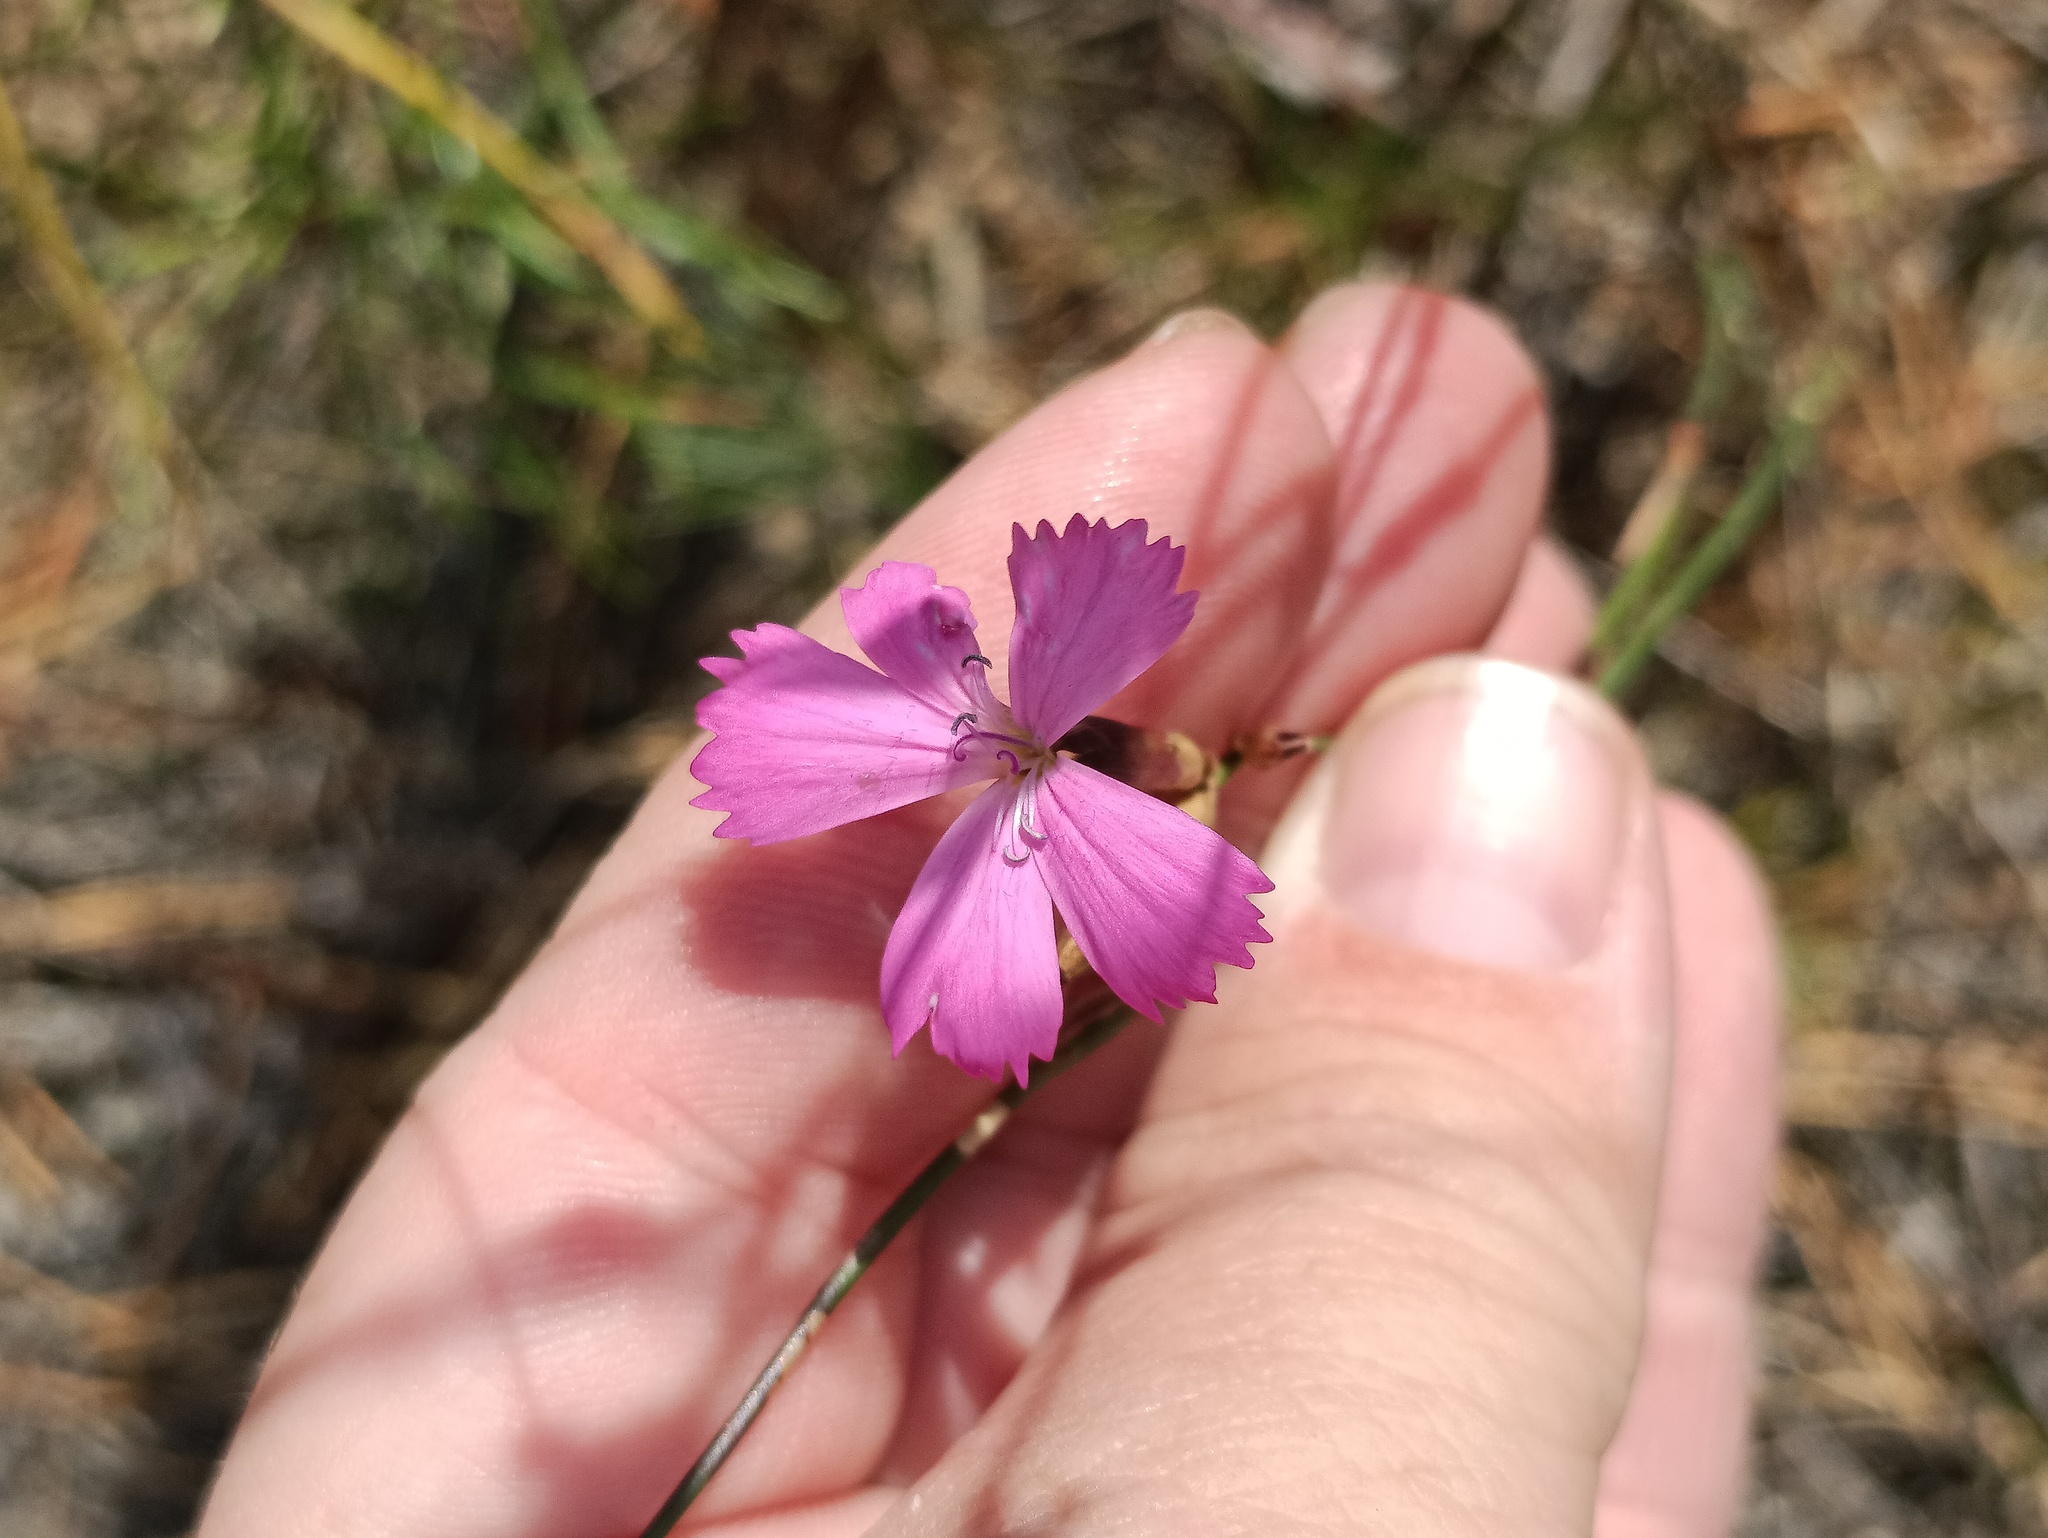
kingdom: Plantae
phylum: Tracheophyta
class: Magnoliopsida
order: Caryophyllales
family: Caryophyllaceae
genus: Dianthus
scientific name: Dianthus borbasii
